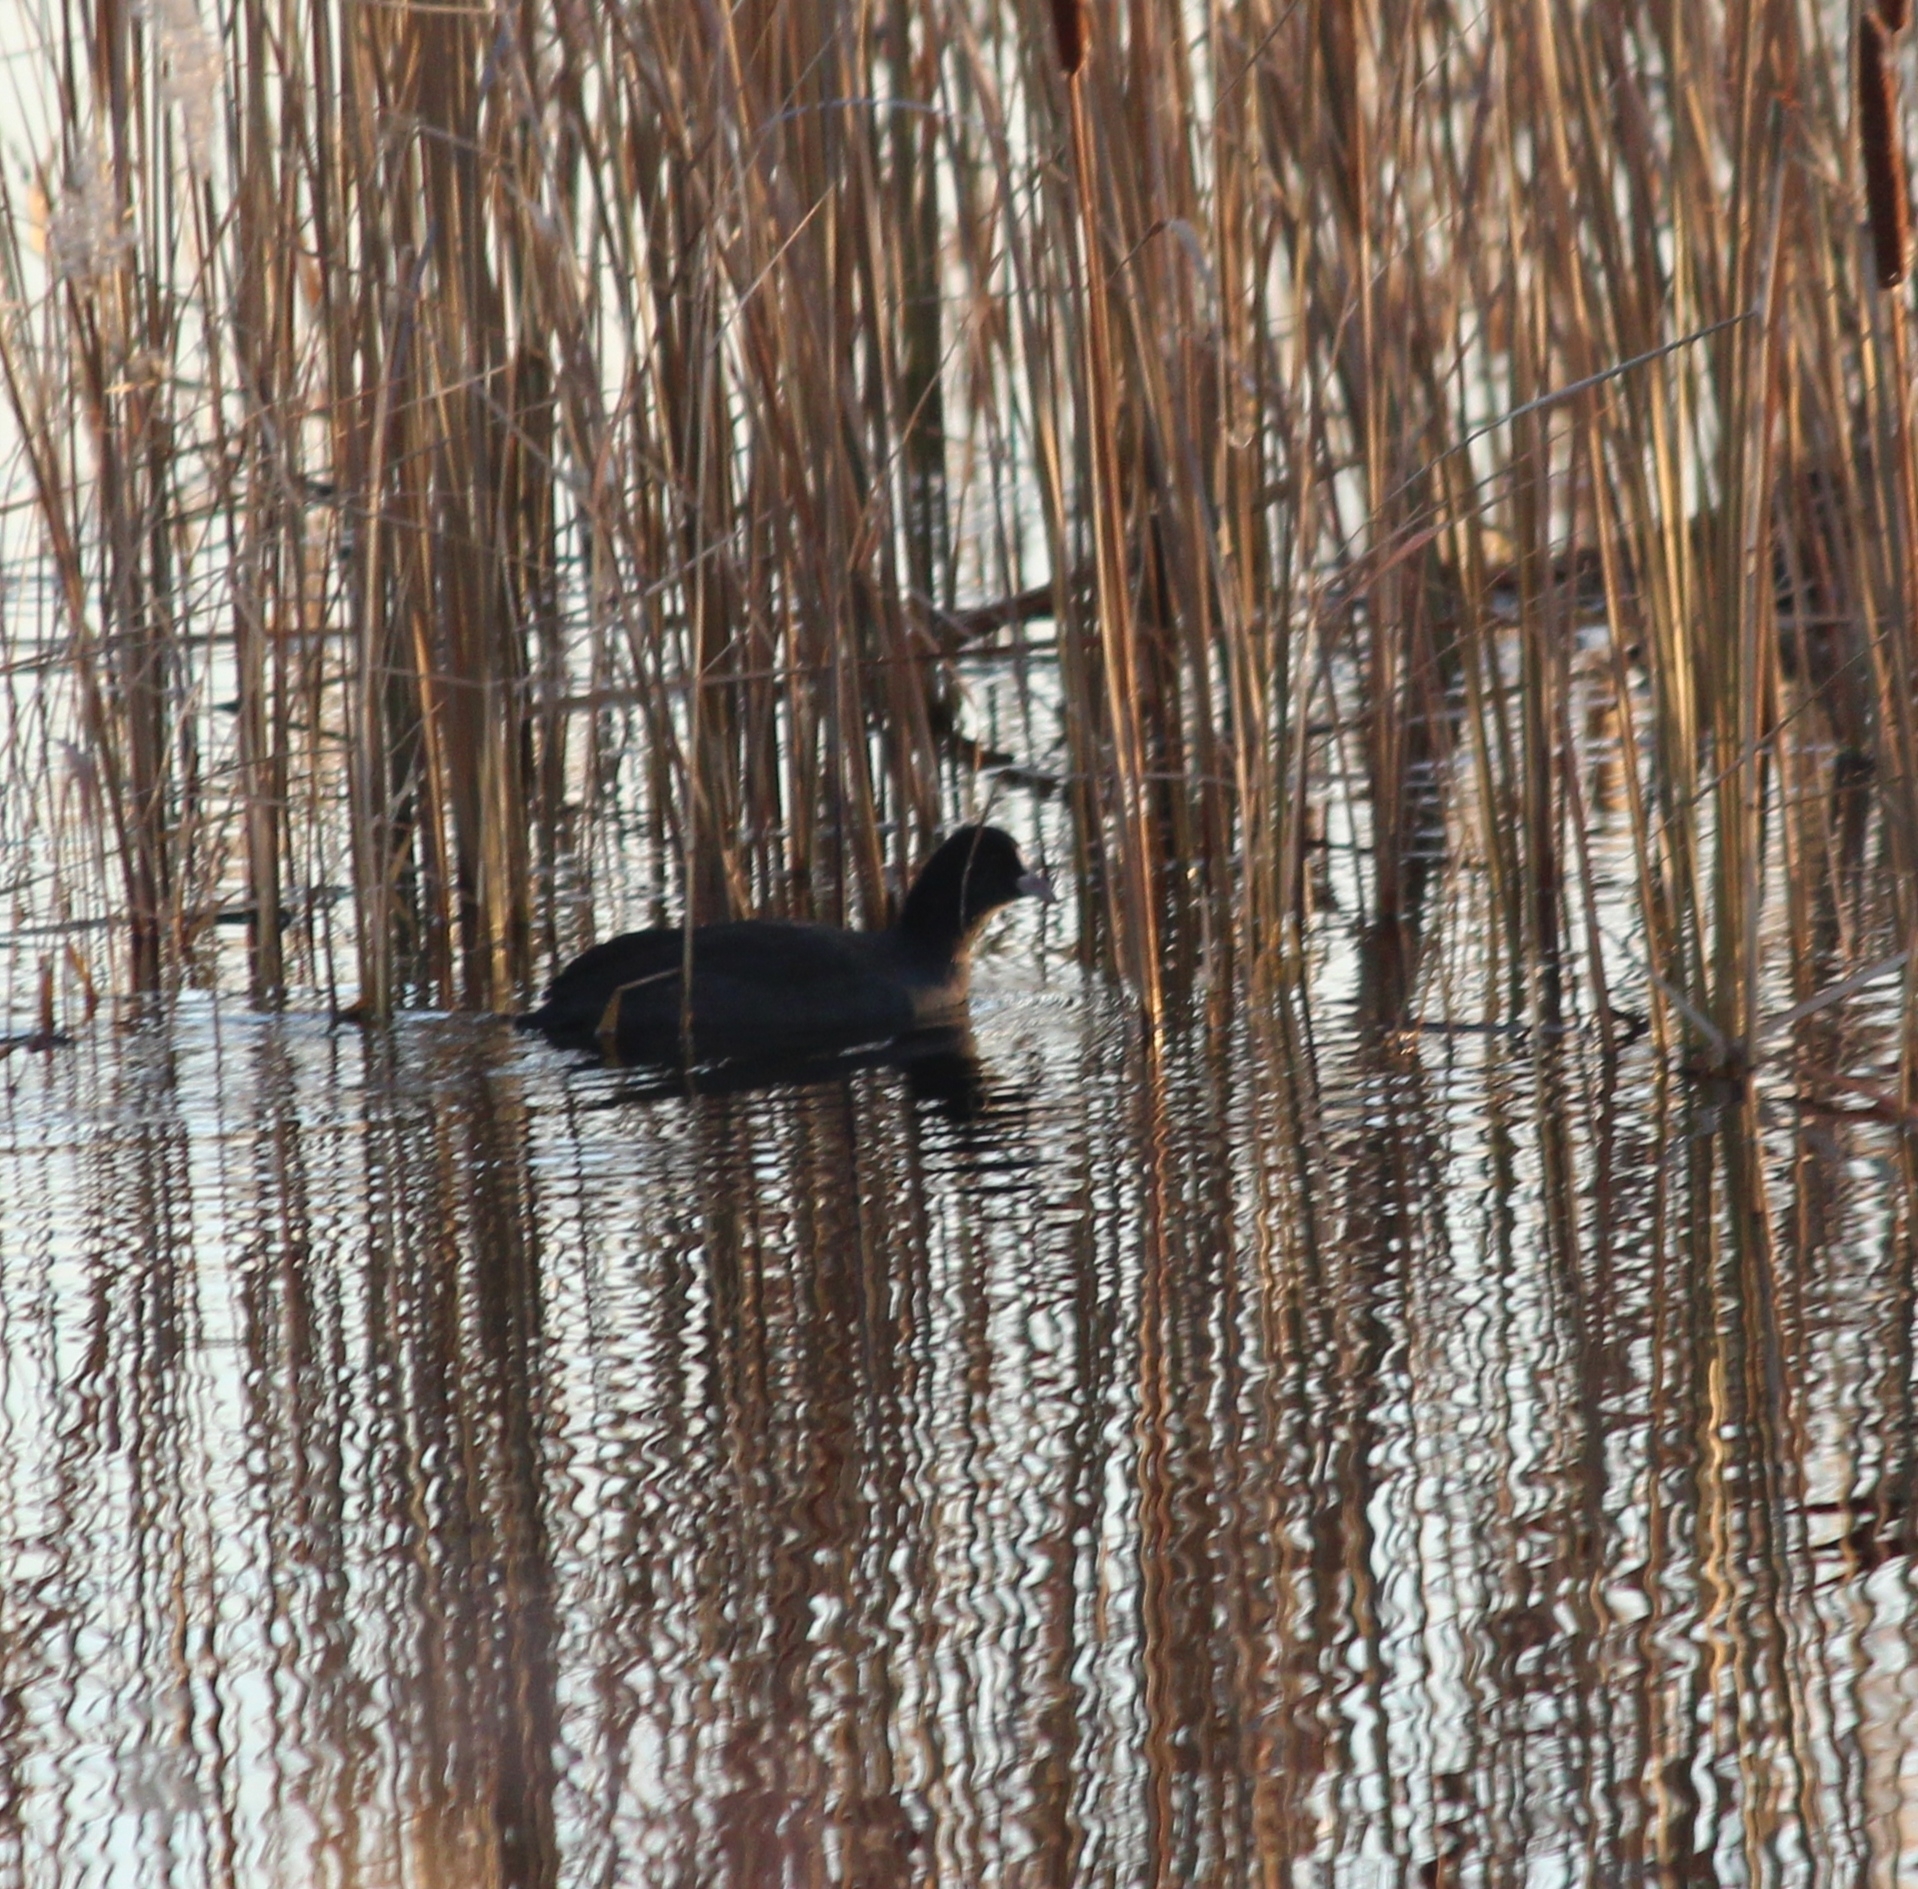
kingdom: Animalia
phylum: Chordata
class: Aves
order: Gruiformes
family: Rallidae
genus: Fulica
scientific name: Fulica atra
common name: Eurasian coot
